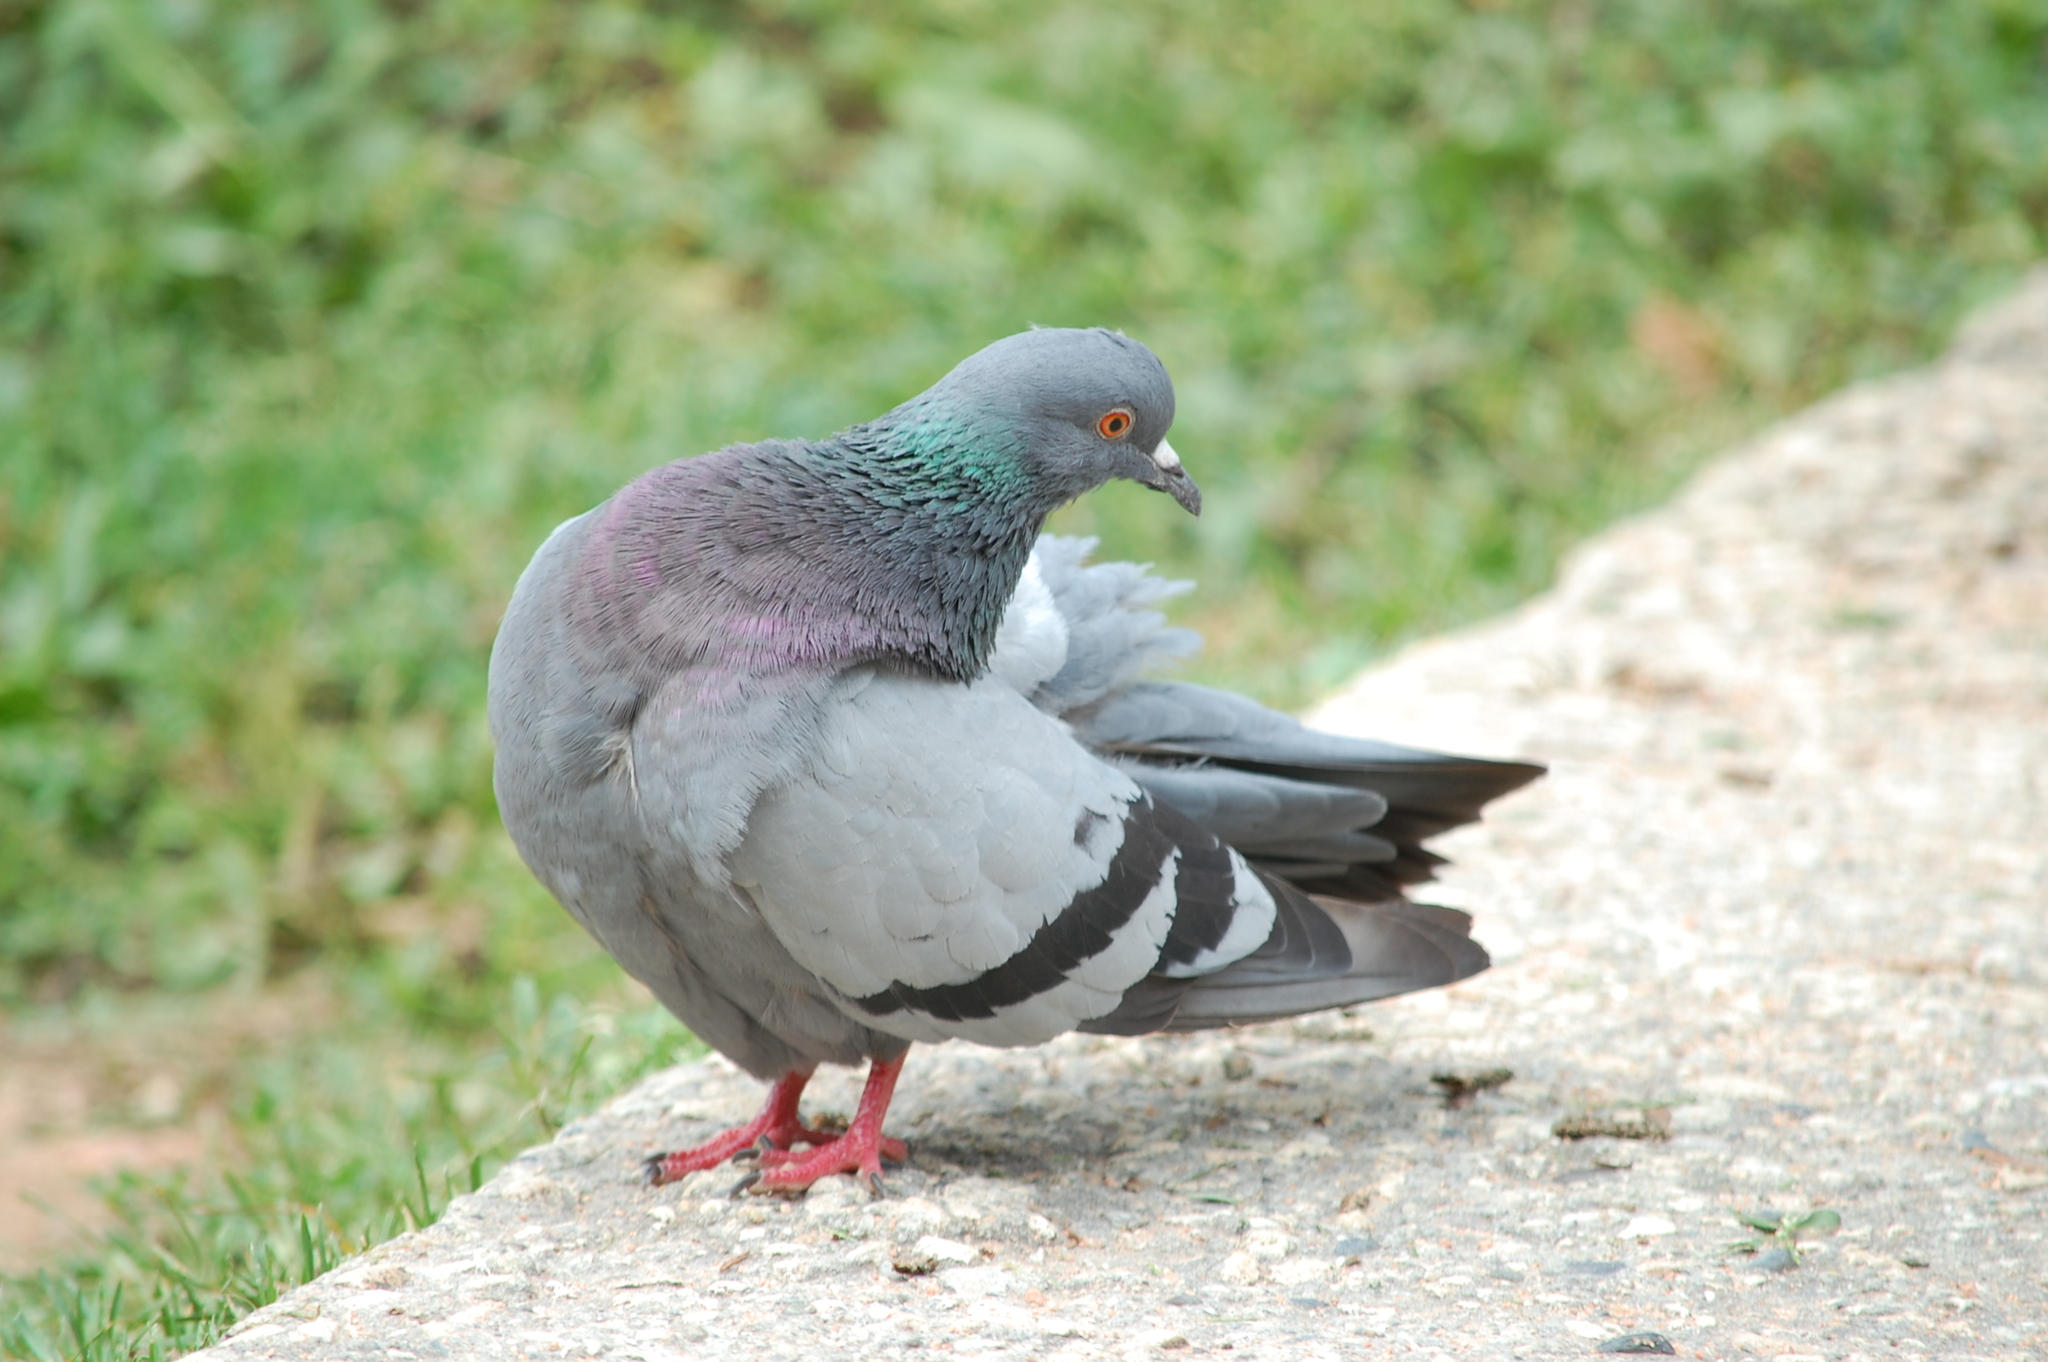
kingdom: Animalia
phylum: Chordata
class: Aves
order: Columbiformes
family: Columbidae
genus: Columba
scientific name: Columba livia
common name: Rock pigeon
